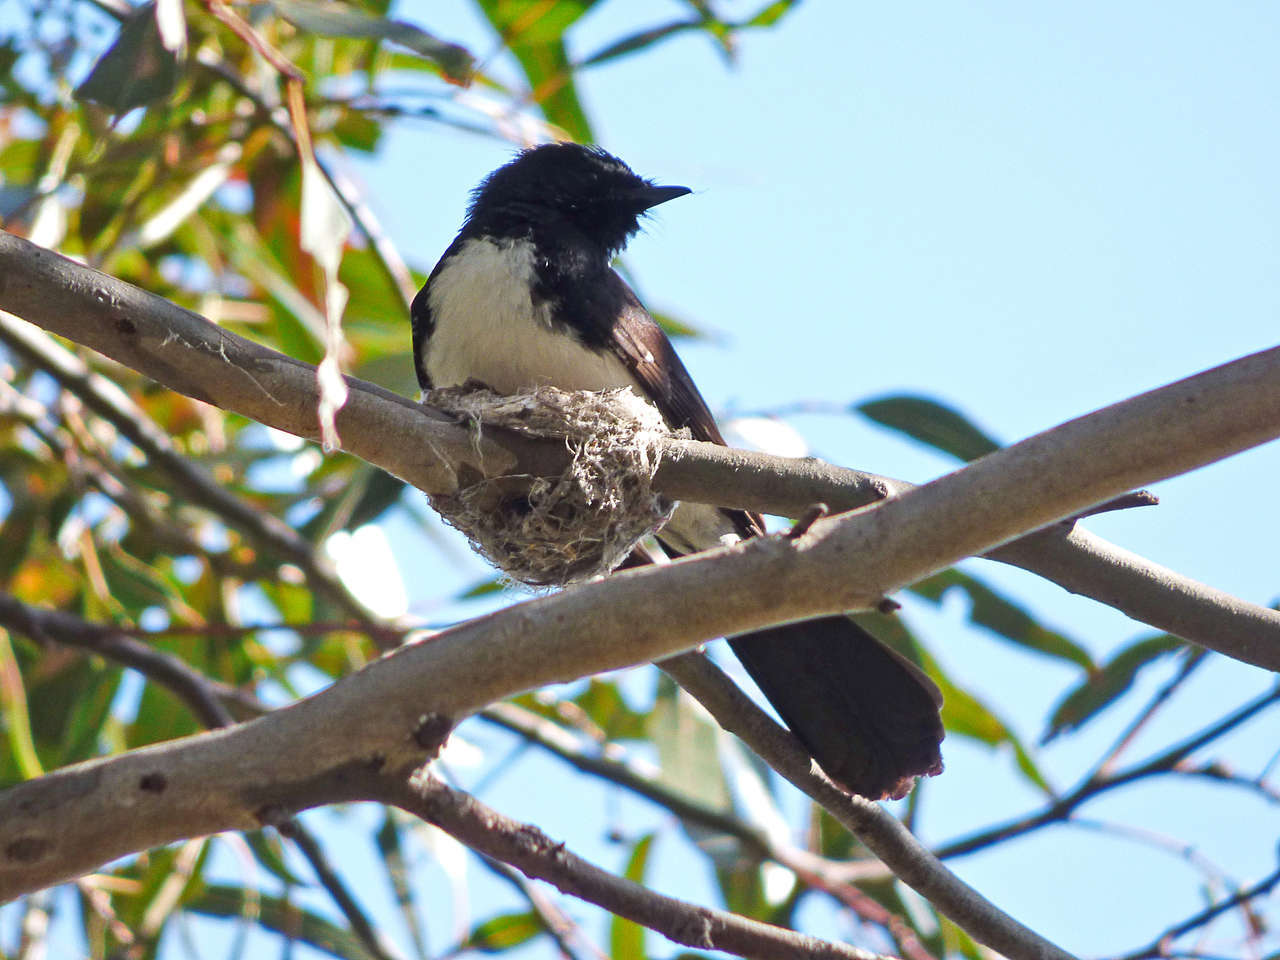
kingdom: Animalia
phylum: Chordata
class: Aves
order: Passeriformes
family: Rhipiduridae
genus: Rhipidura
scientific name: Rhipidura leucophrys
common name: Willie wagtail
